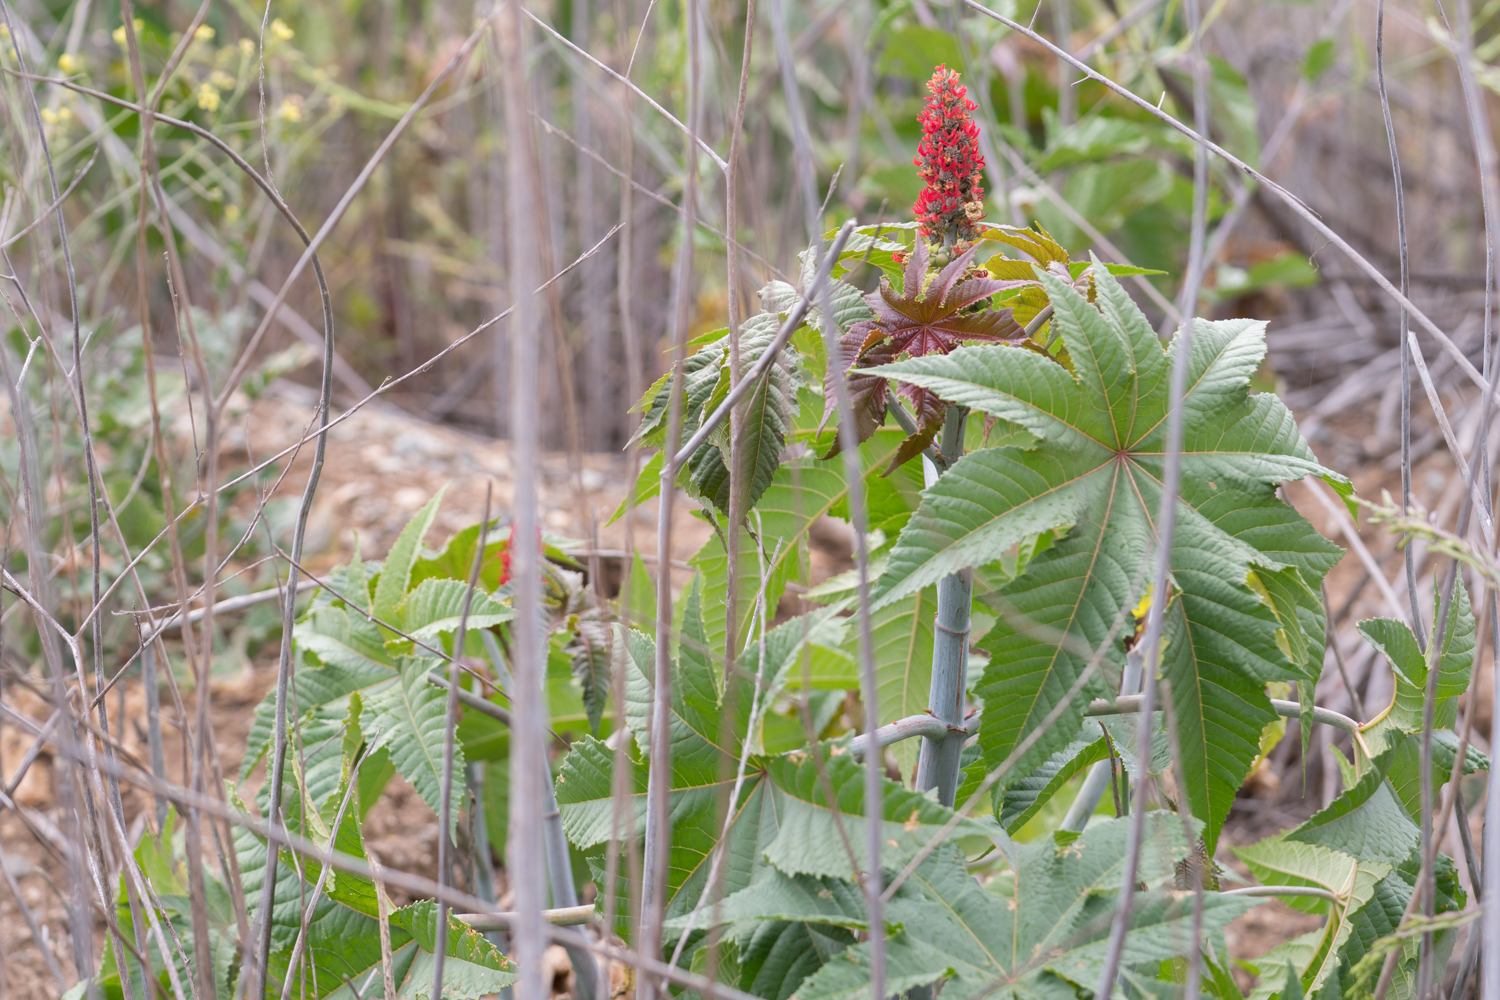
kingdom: Plantae
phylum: Tracheophyta
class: Magnoliopsida
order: Malpighiales
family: Euphorbiaceae
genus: Ricinus
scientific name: Ricinus communis
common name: Castor-oil-plant
